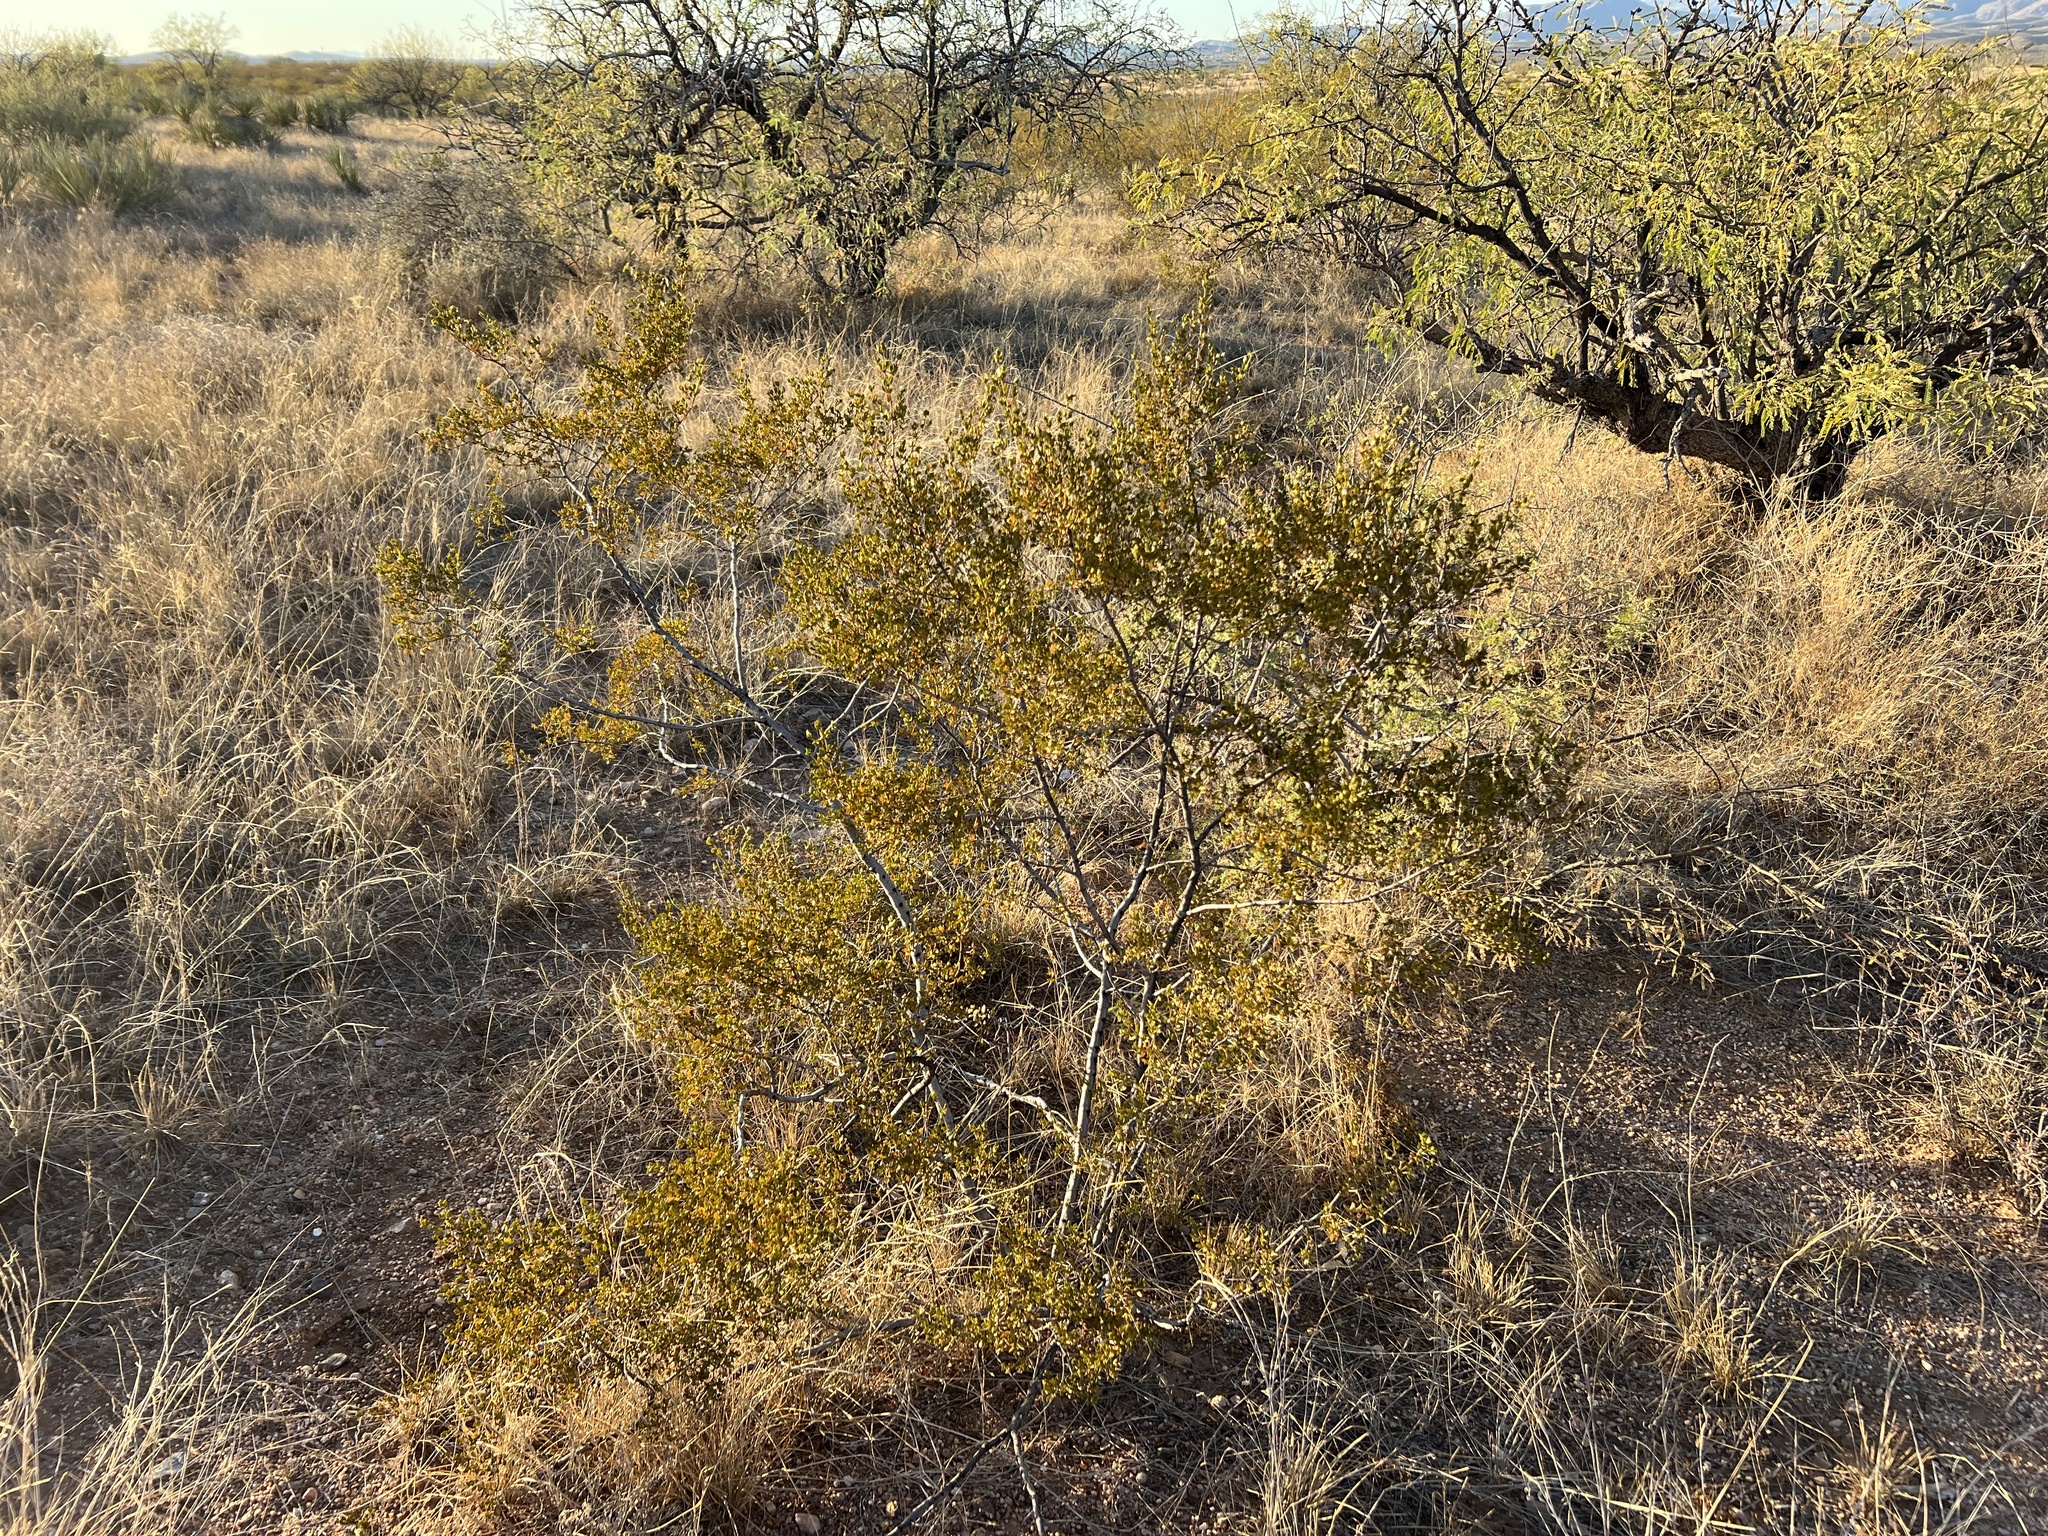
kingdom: Plantae
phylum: Tracheophyta
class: Magnoliopsida
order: Zygophyllales
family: Zygophyllaceae
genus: Larrea
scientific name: Larrea tridentata
